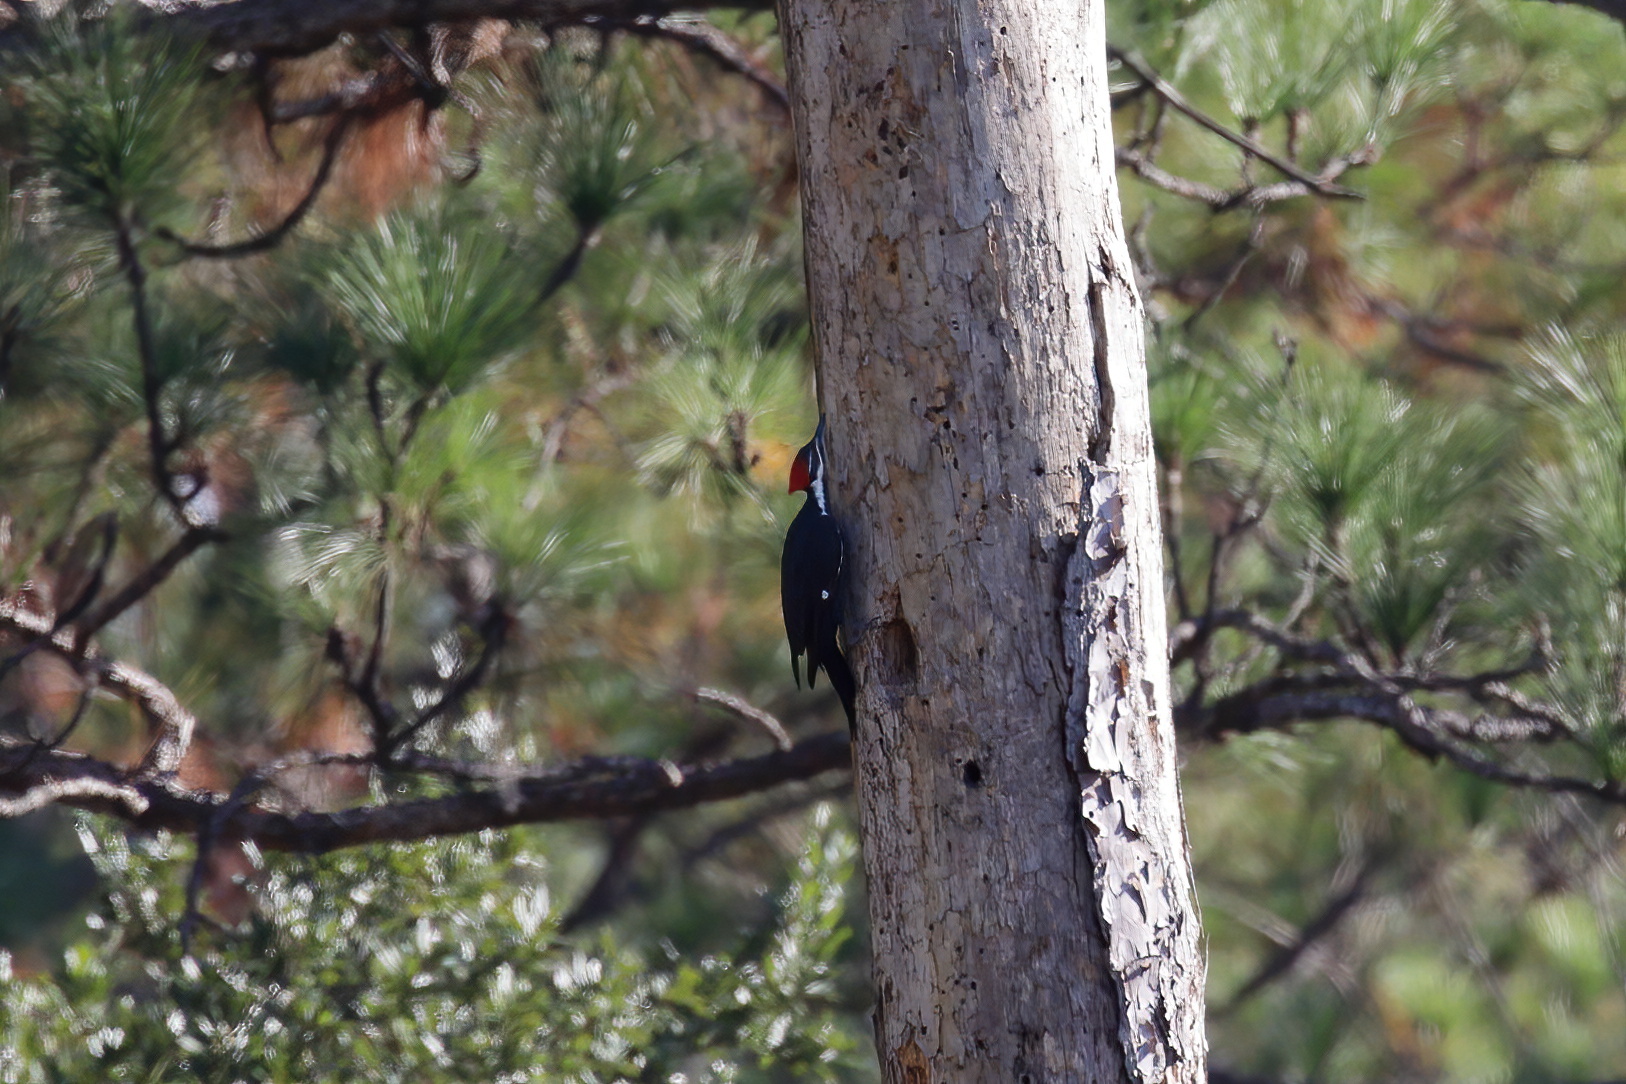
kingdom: Animalia
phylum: Chordata
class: Aves
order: Piciformes
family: Picidae
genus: Dryocopus
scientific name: Dryocopus pileatus
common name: Pileated woodpecker
